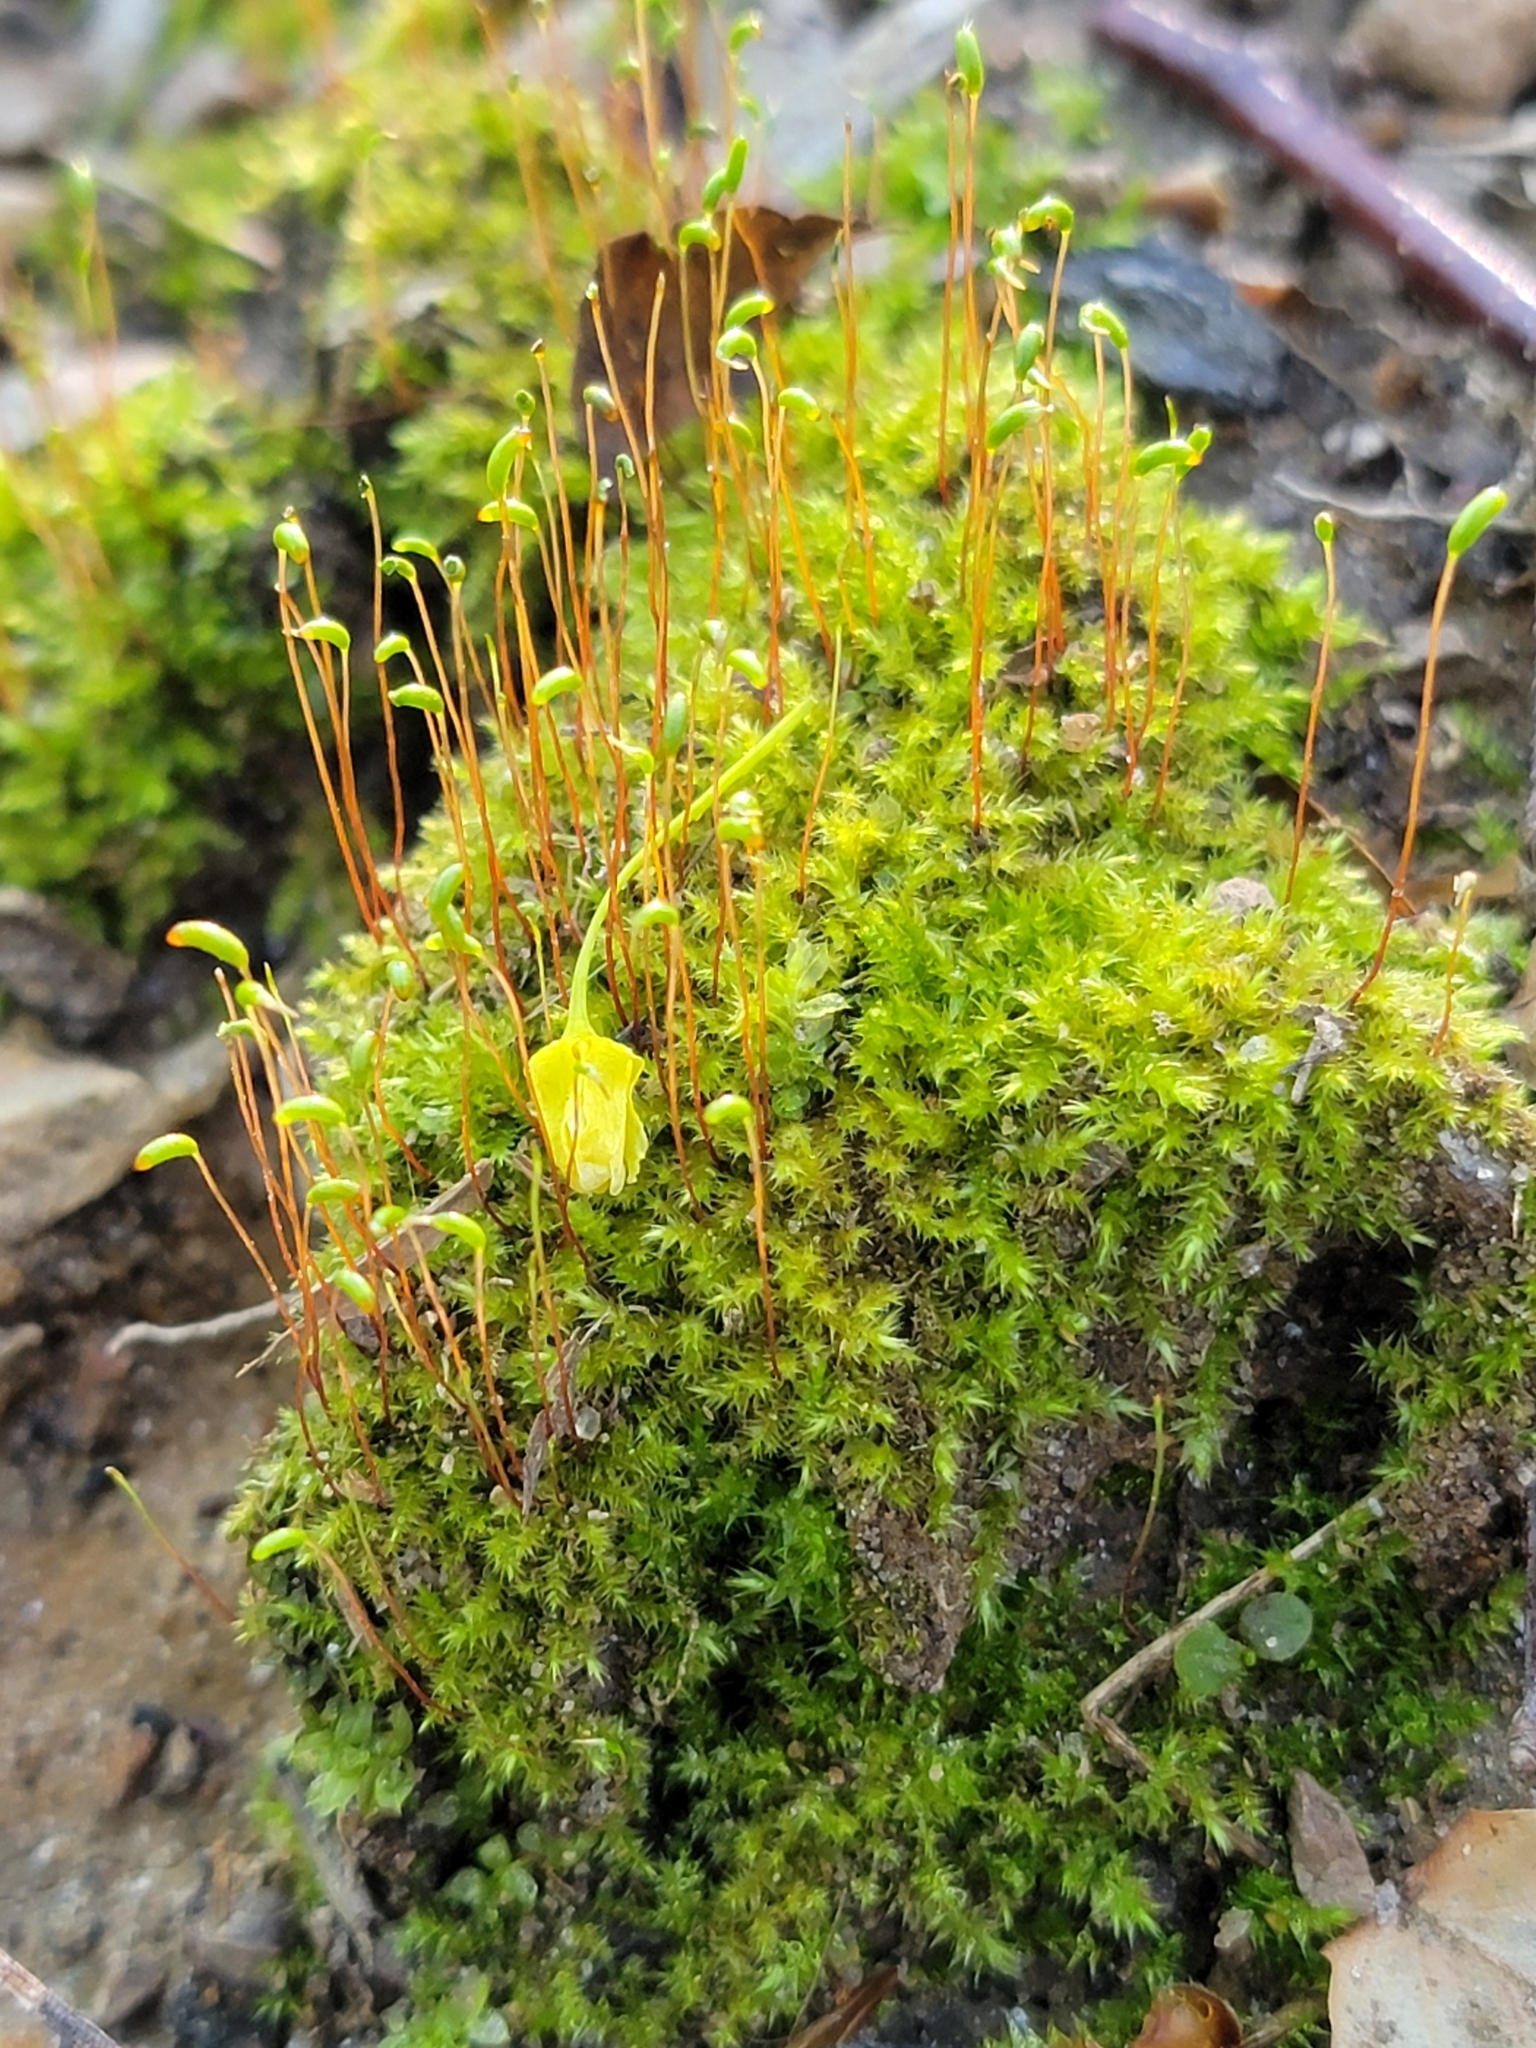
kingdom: Plantae
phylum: Bryophyta
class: Bryopsida
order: Dicranales
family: Ditrichaceae
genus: Ceratodon
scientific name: Ceratodon purpureus
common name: Redshank
